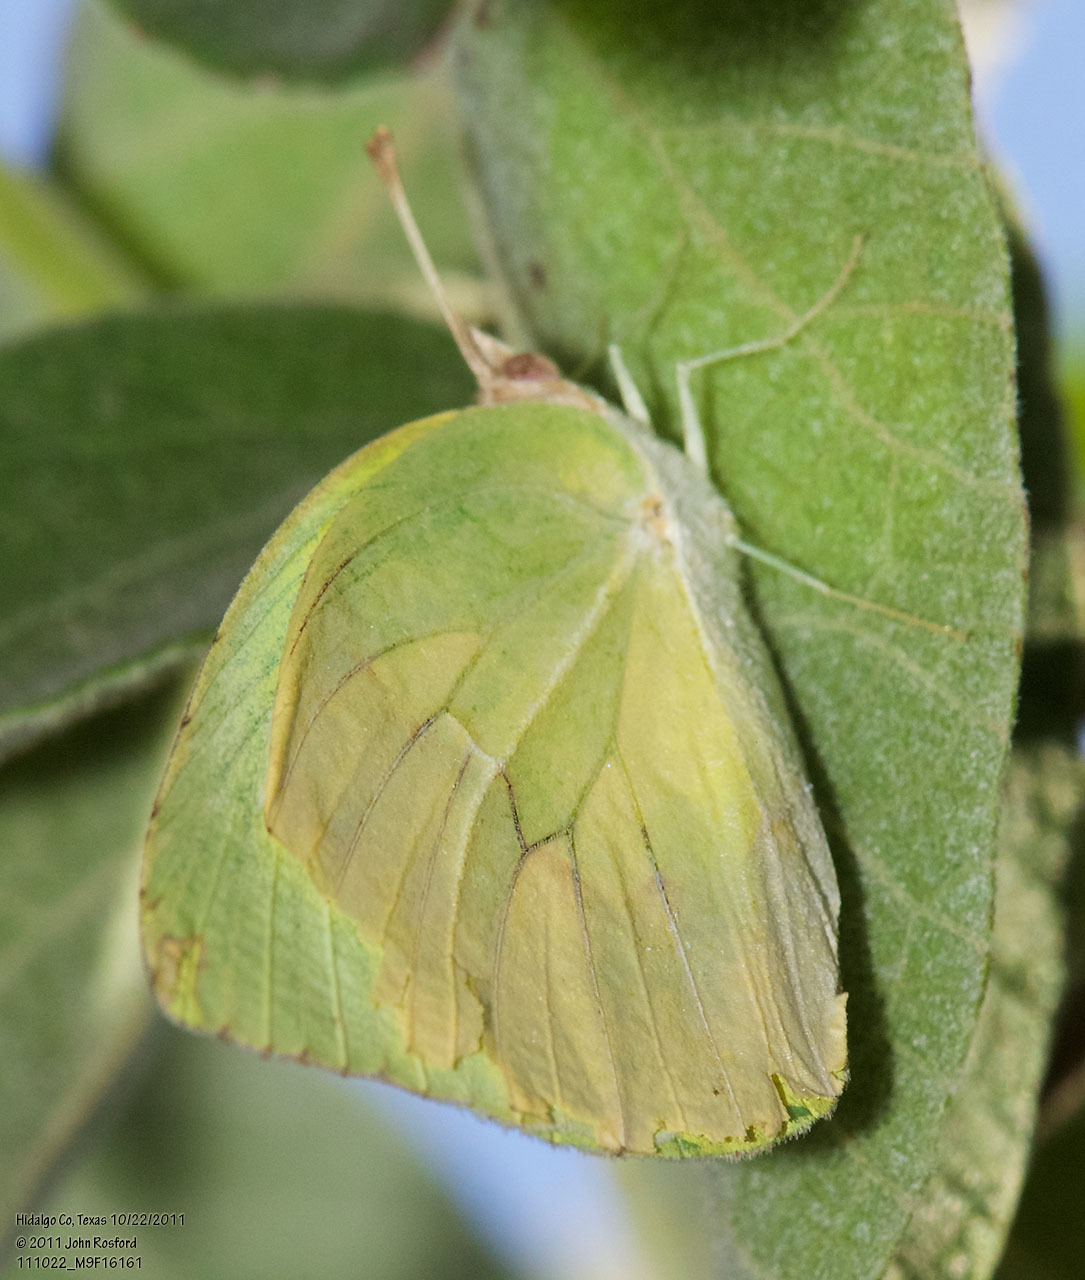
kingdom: Animalia
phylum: Arthropoda
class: Insecta
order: Lepidoptera
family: Pieridae
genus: Kricogonia
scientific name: Kricogonia lyside
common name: Guayacan sulphur,
